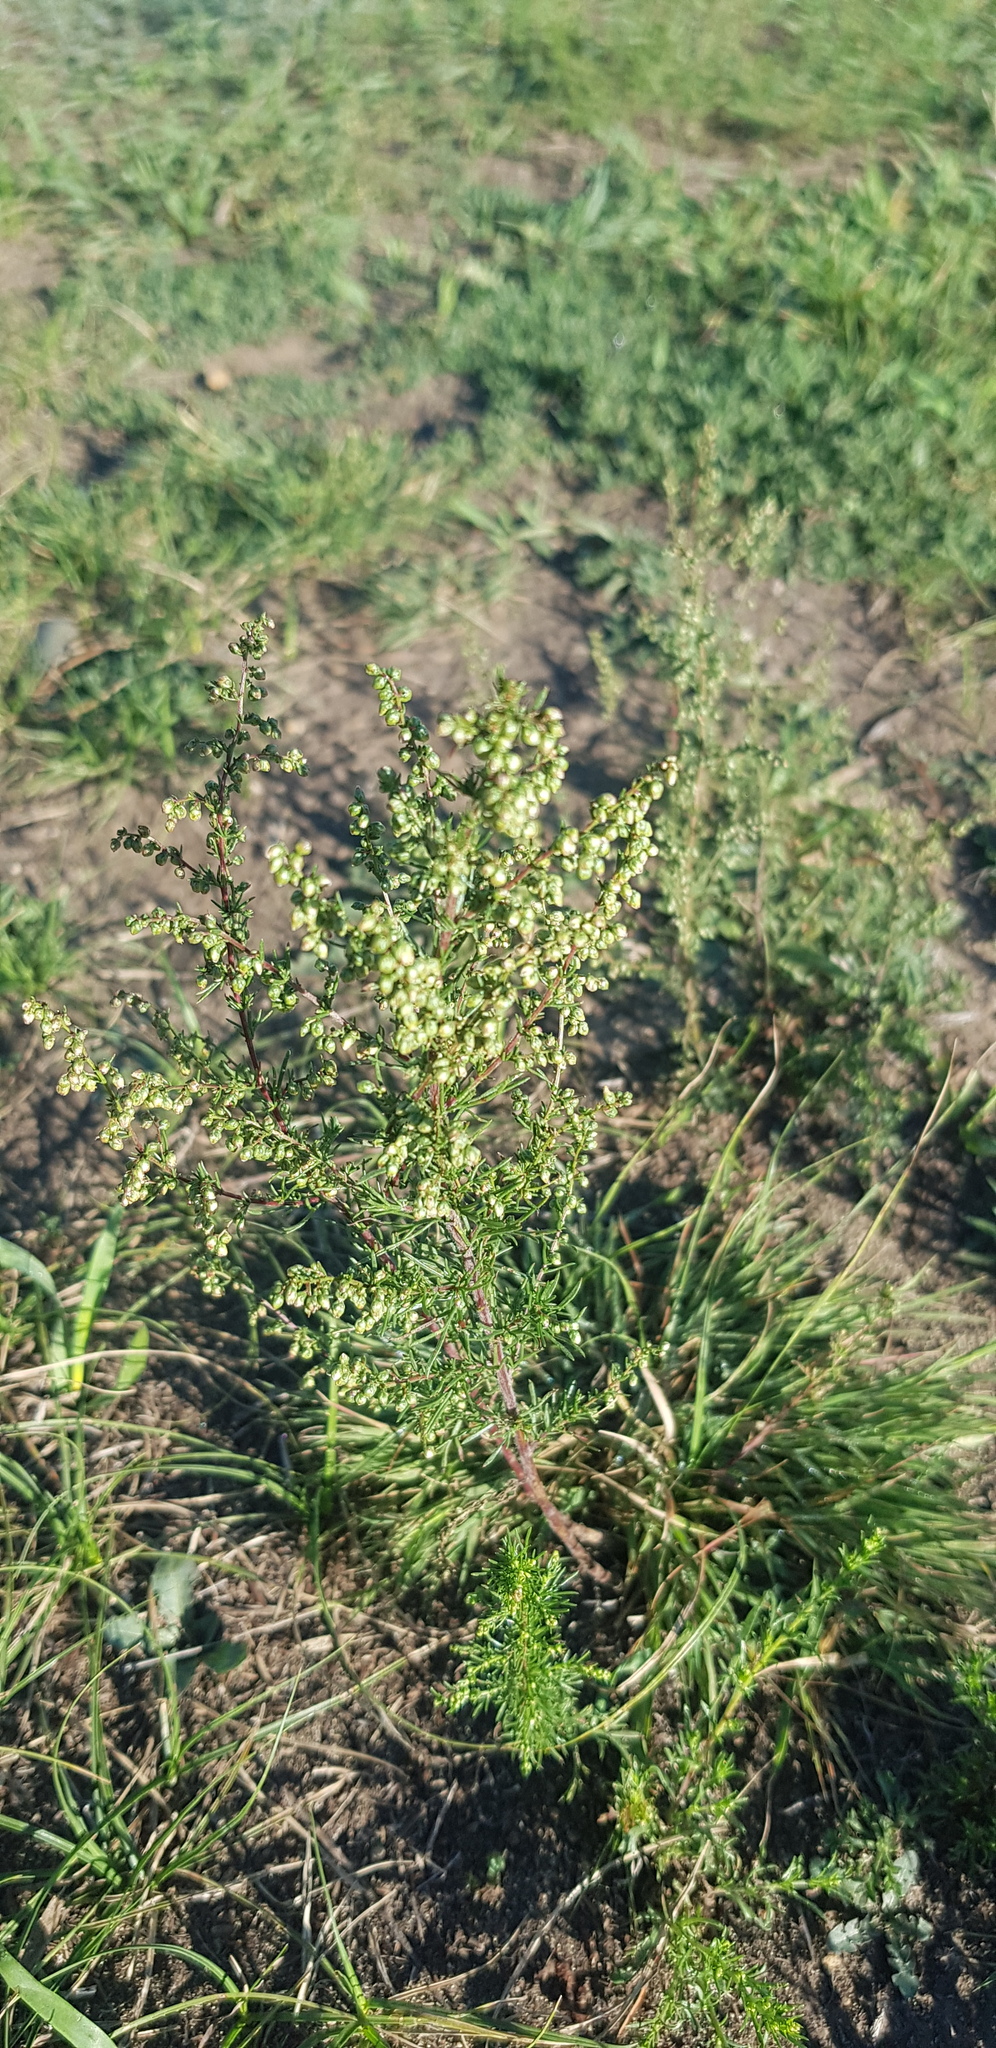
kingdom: Plantae
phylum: Tracheophyta
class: Magnoliopsida
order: Asterales
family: Asteraceae
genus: Artemisia
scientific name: Artemisia scoparia
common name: Redstem wormwood
